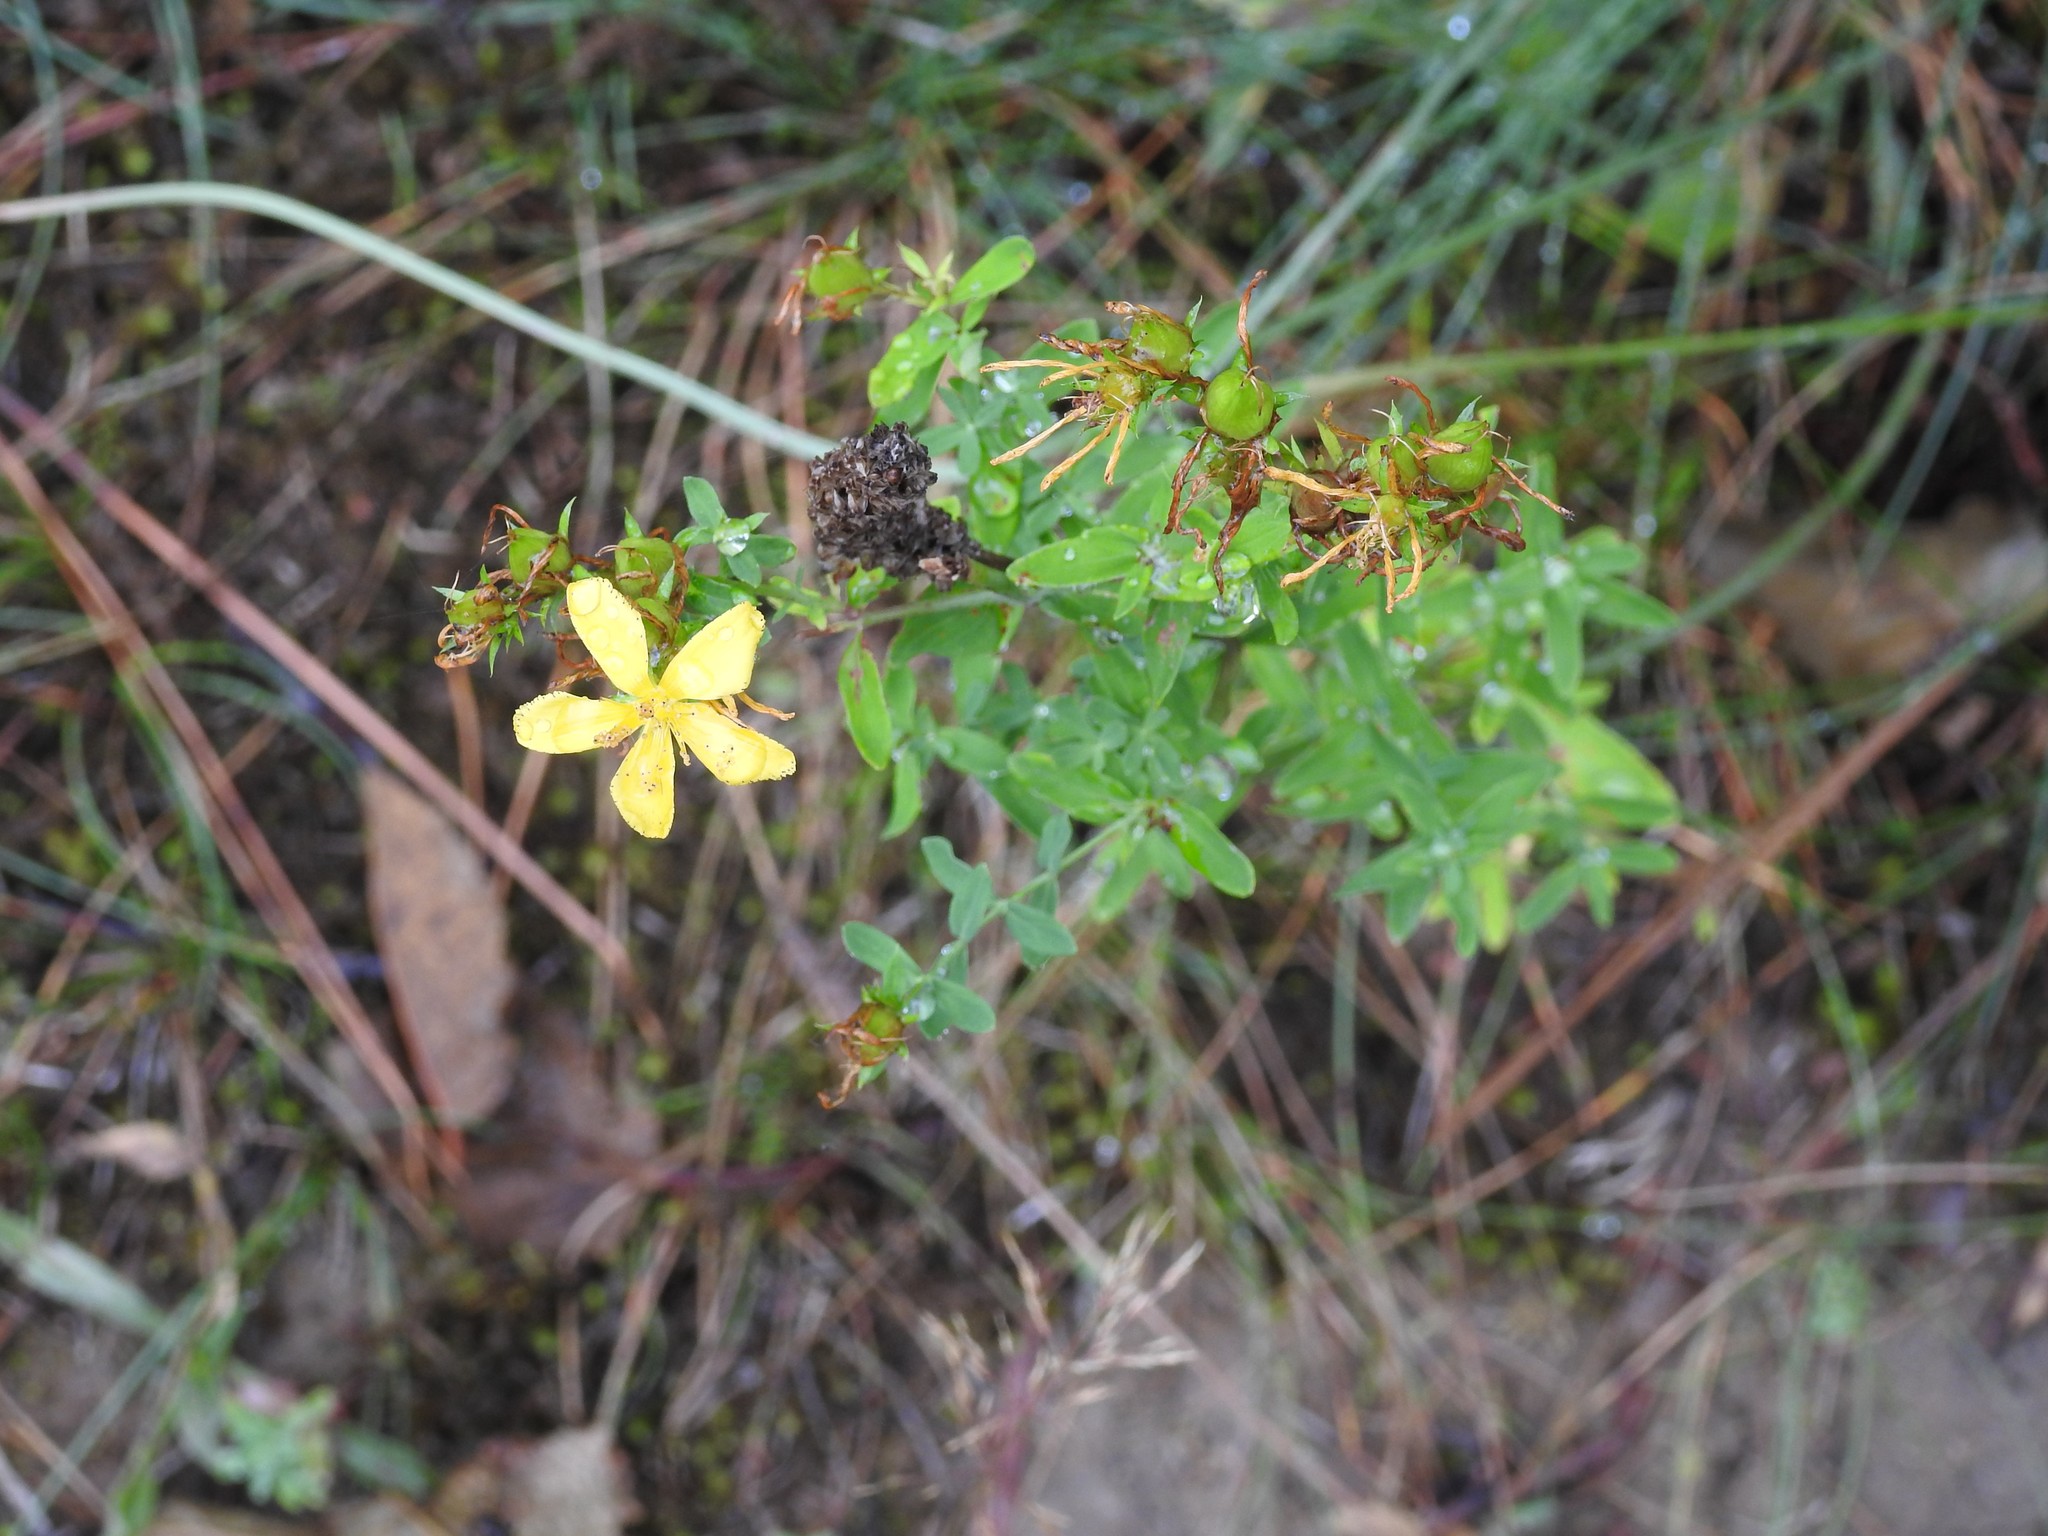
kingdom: Plantae
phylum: Tracheophyta
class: Magnoliopsida
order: Malpighiales
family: Hypericaceae
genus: Hypericum
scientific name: Hypericum perforatum
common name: Common st. johnswort
